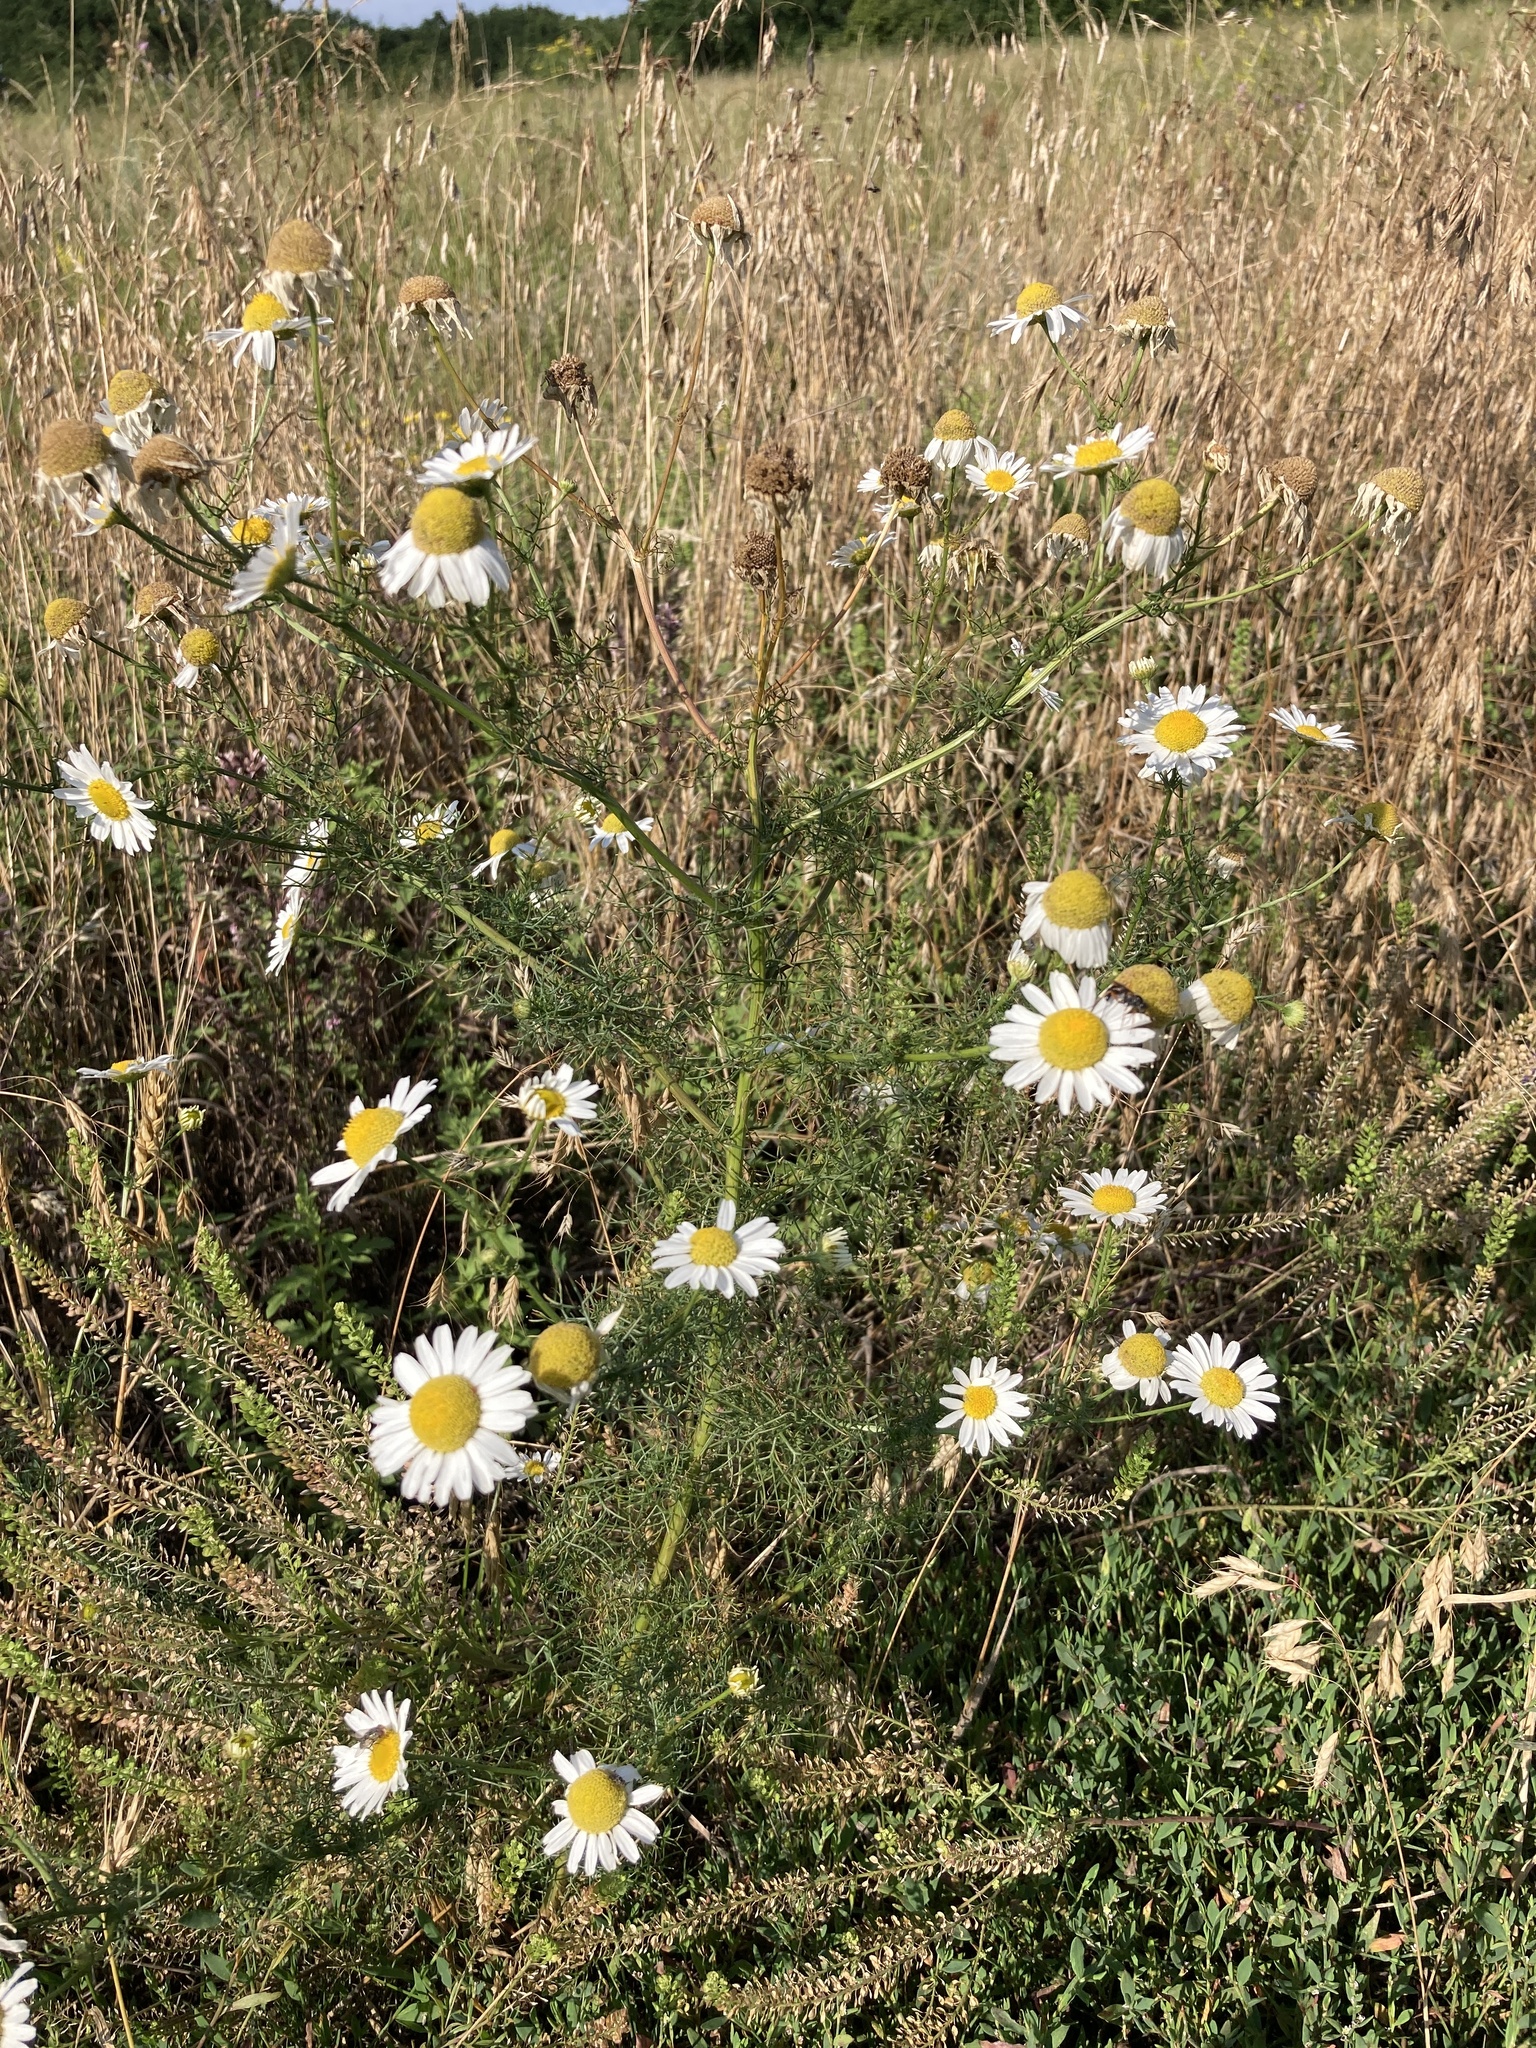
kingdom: Plantae
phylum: Tracheophyta
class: Magnoliopsida
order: Asterales
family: Asteraceae
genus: Tripleurospermum
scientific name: Tripleurospermum inodorum
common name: Scentless mayweed
